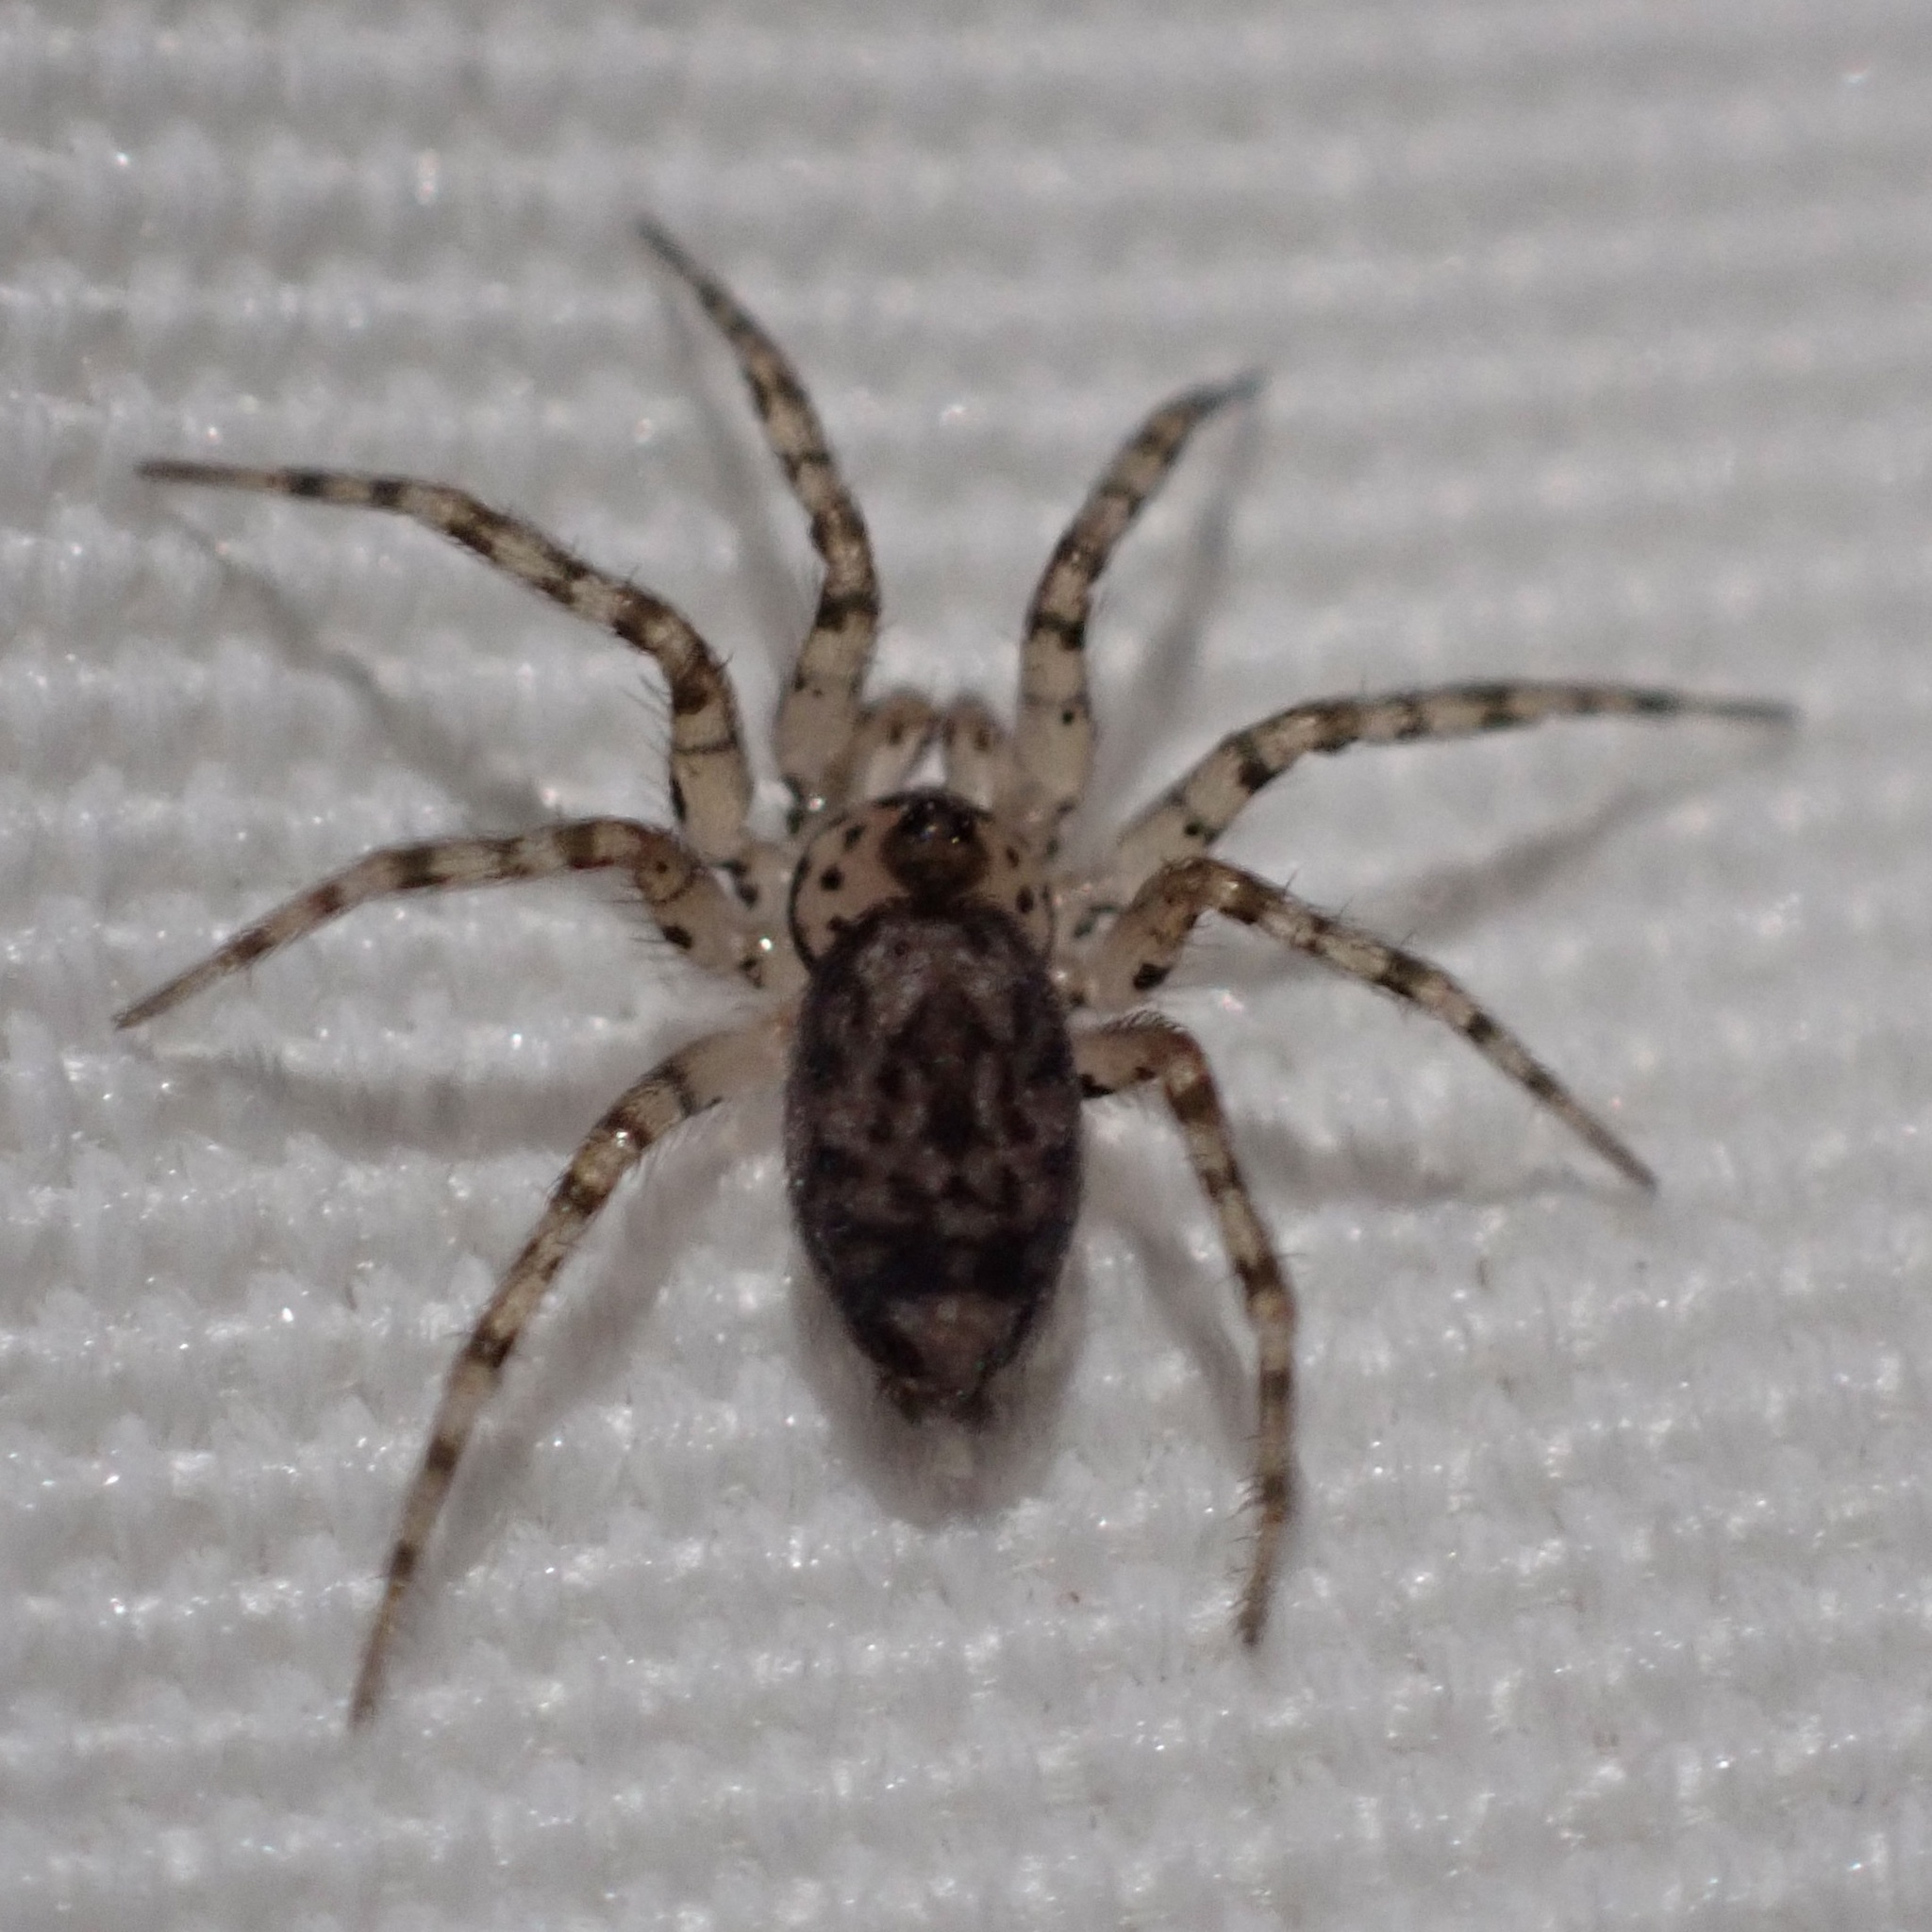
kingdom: Animalia
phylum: Arthropoda
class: Arachnida
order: Araneae
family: Oecobiidae
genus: Oecobius
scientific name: Oecobius navus
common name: Flatmesh weaver
